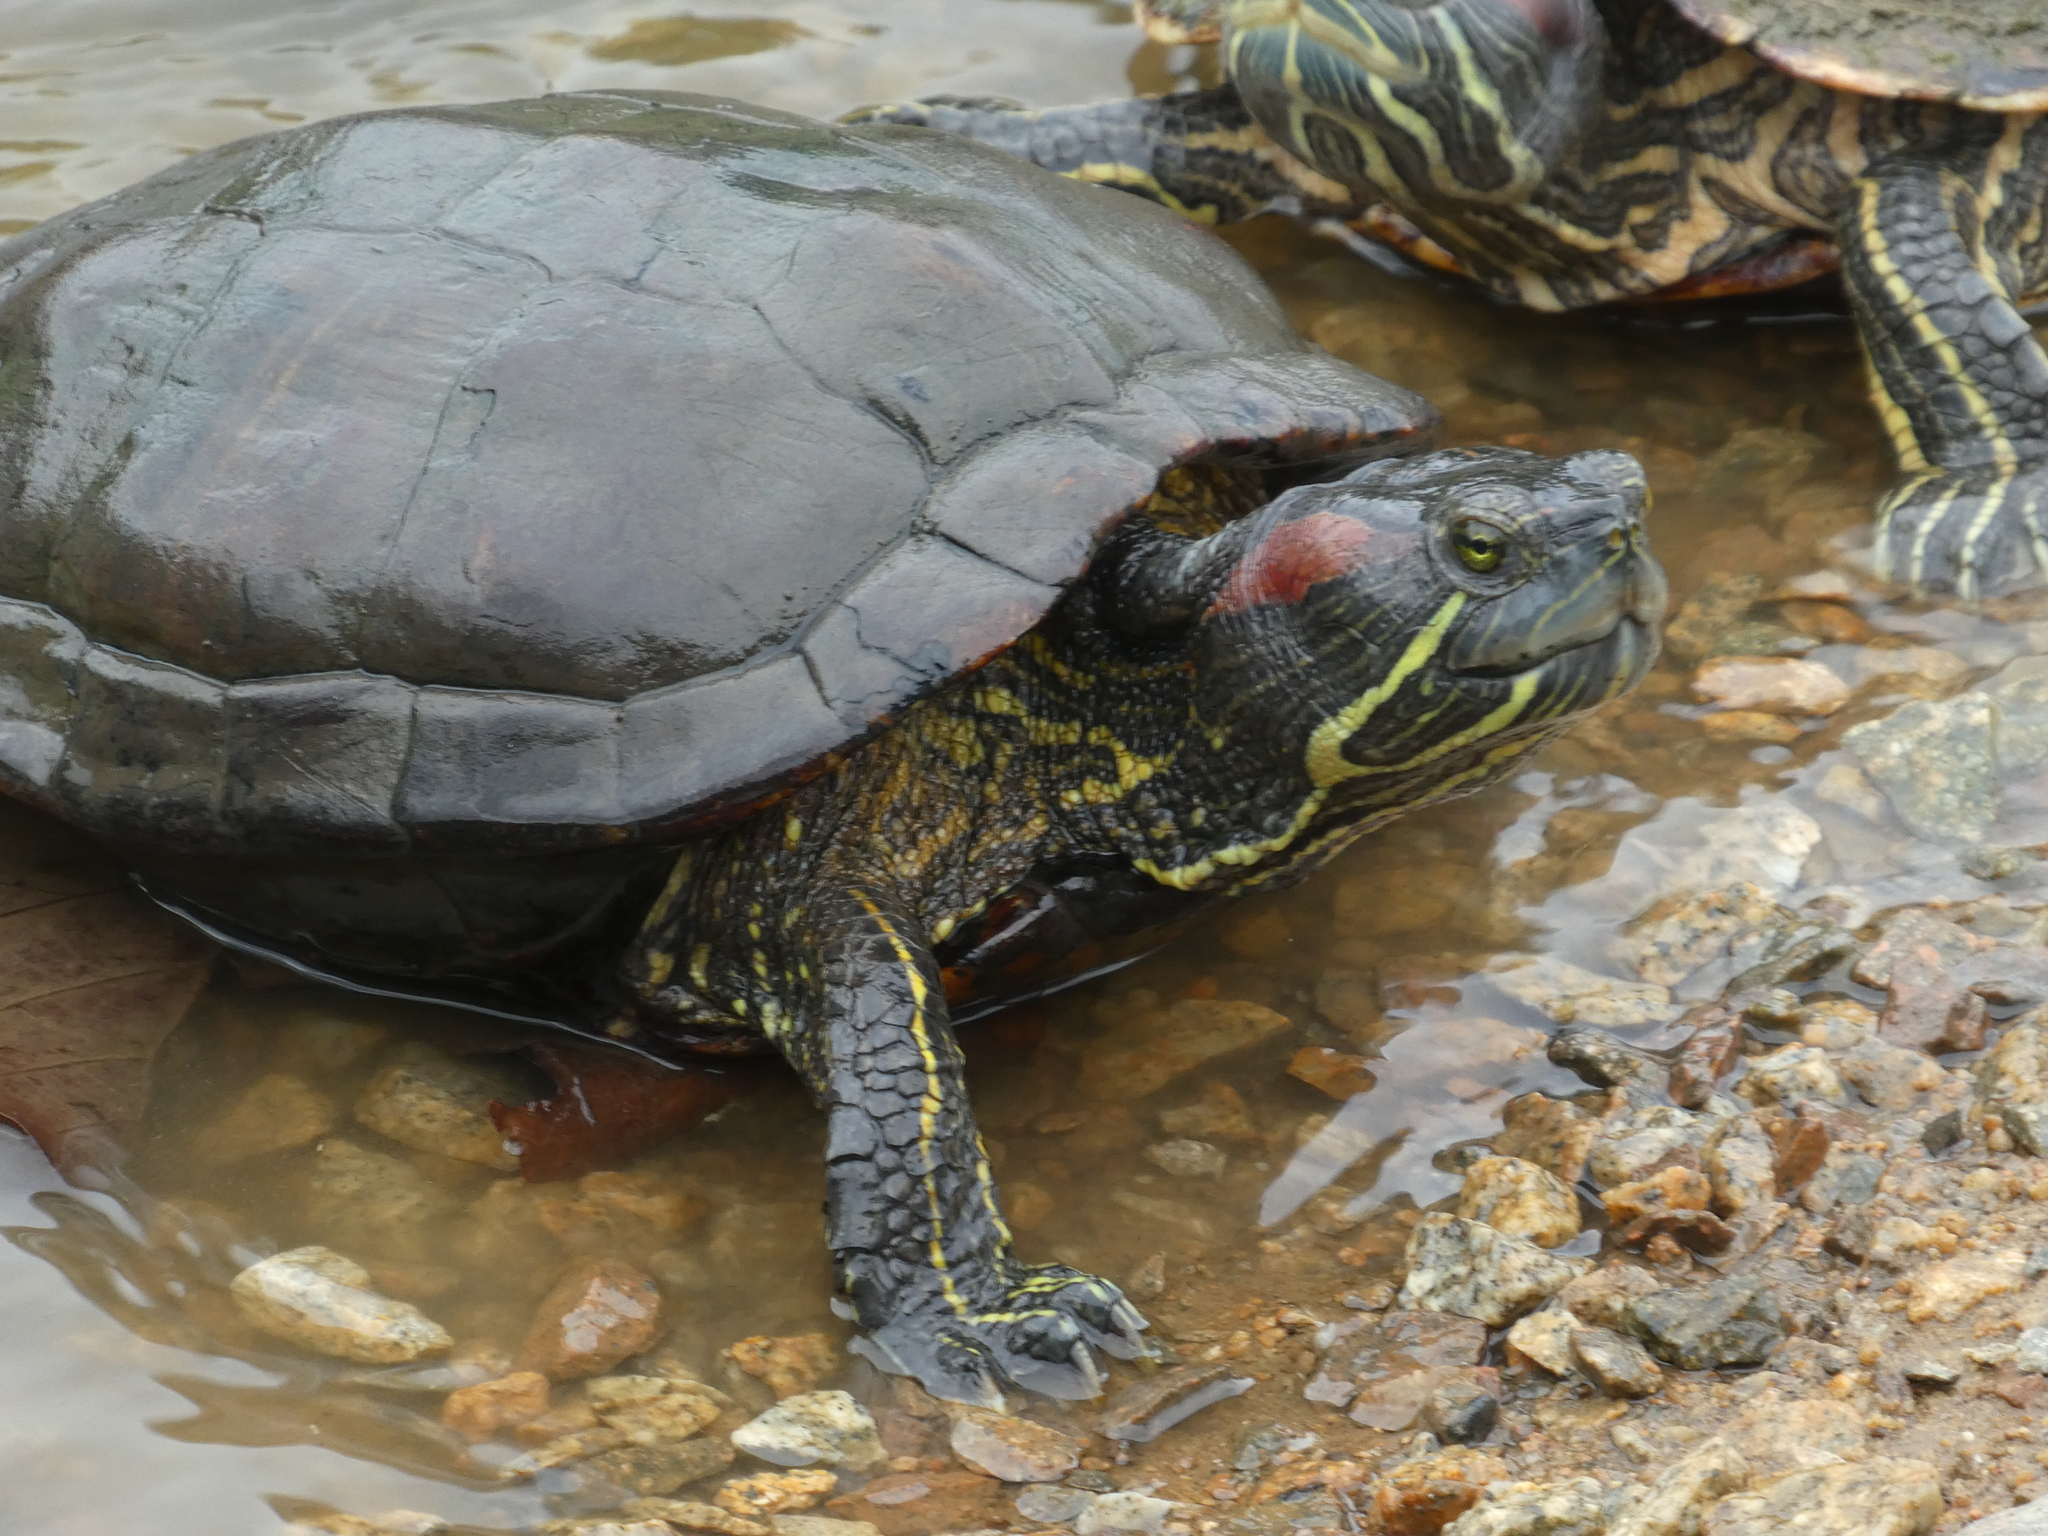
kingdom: Animalia
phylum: Chordata
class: Testudines
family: Emydidae
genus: Trachemys
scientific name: Trachemys scripta
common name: Slider
